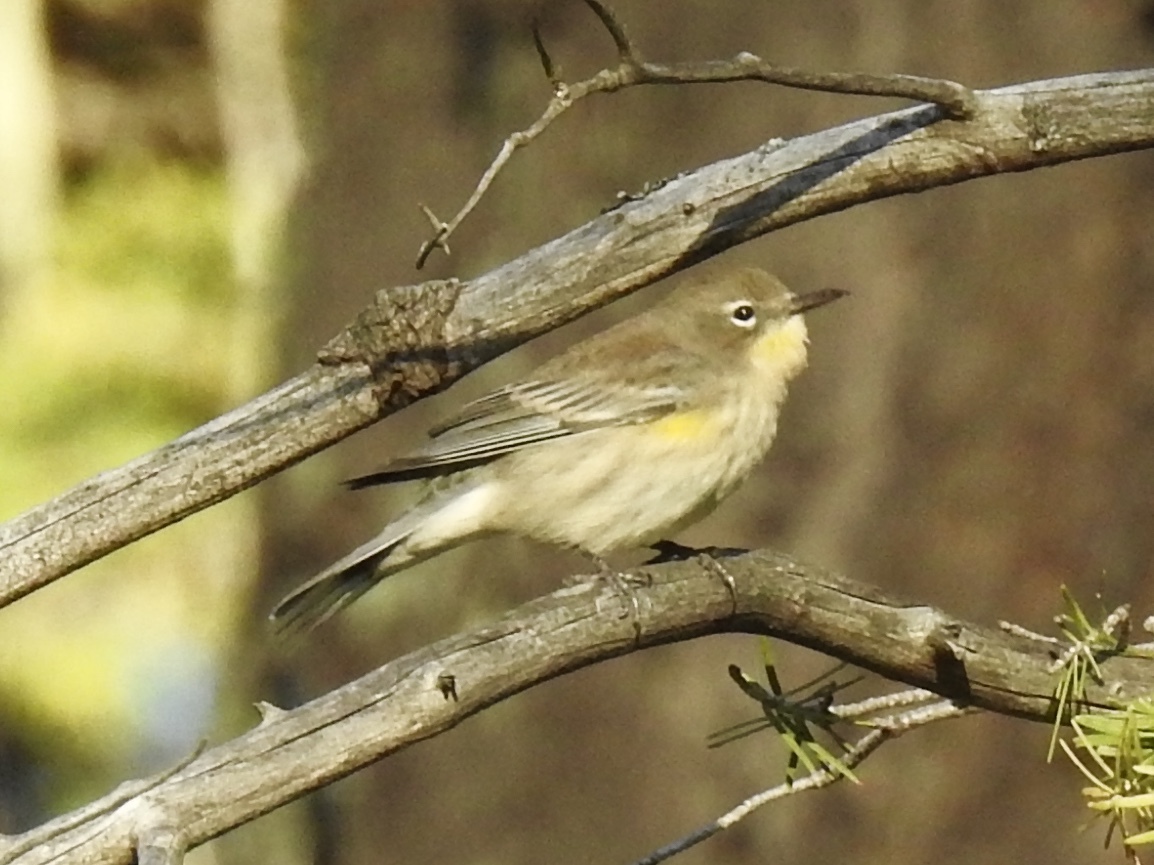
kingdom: Animalia
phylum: Chordata
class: Aves
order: Passeriformes
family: Parulidae
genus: Setophaga
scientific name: Setophaga coronata
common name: Myrtle warbler
